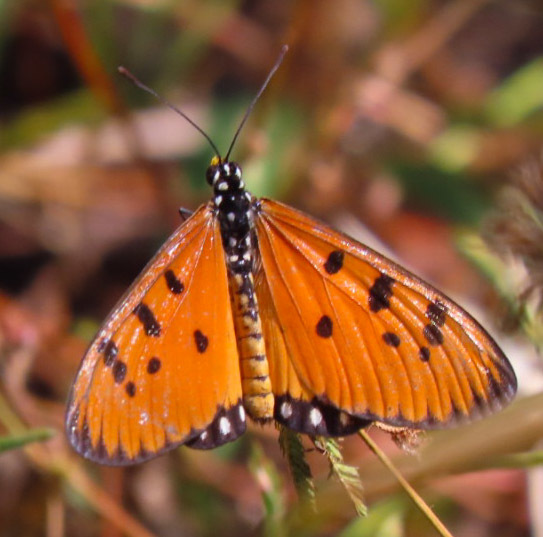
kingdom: Animalia
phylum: Arthropoda
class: Insecta
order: Lepidoptera
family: Nymphalidae
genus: Acraea
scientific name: Acraea terpsicore
